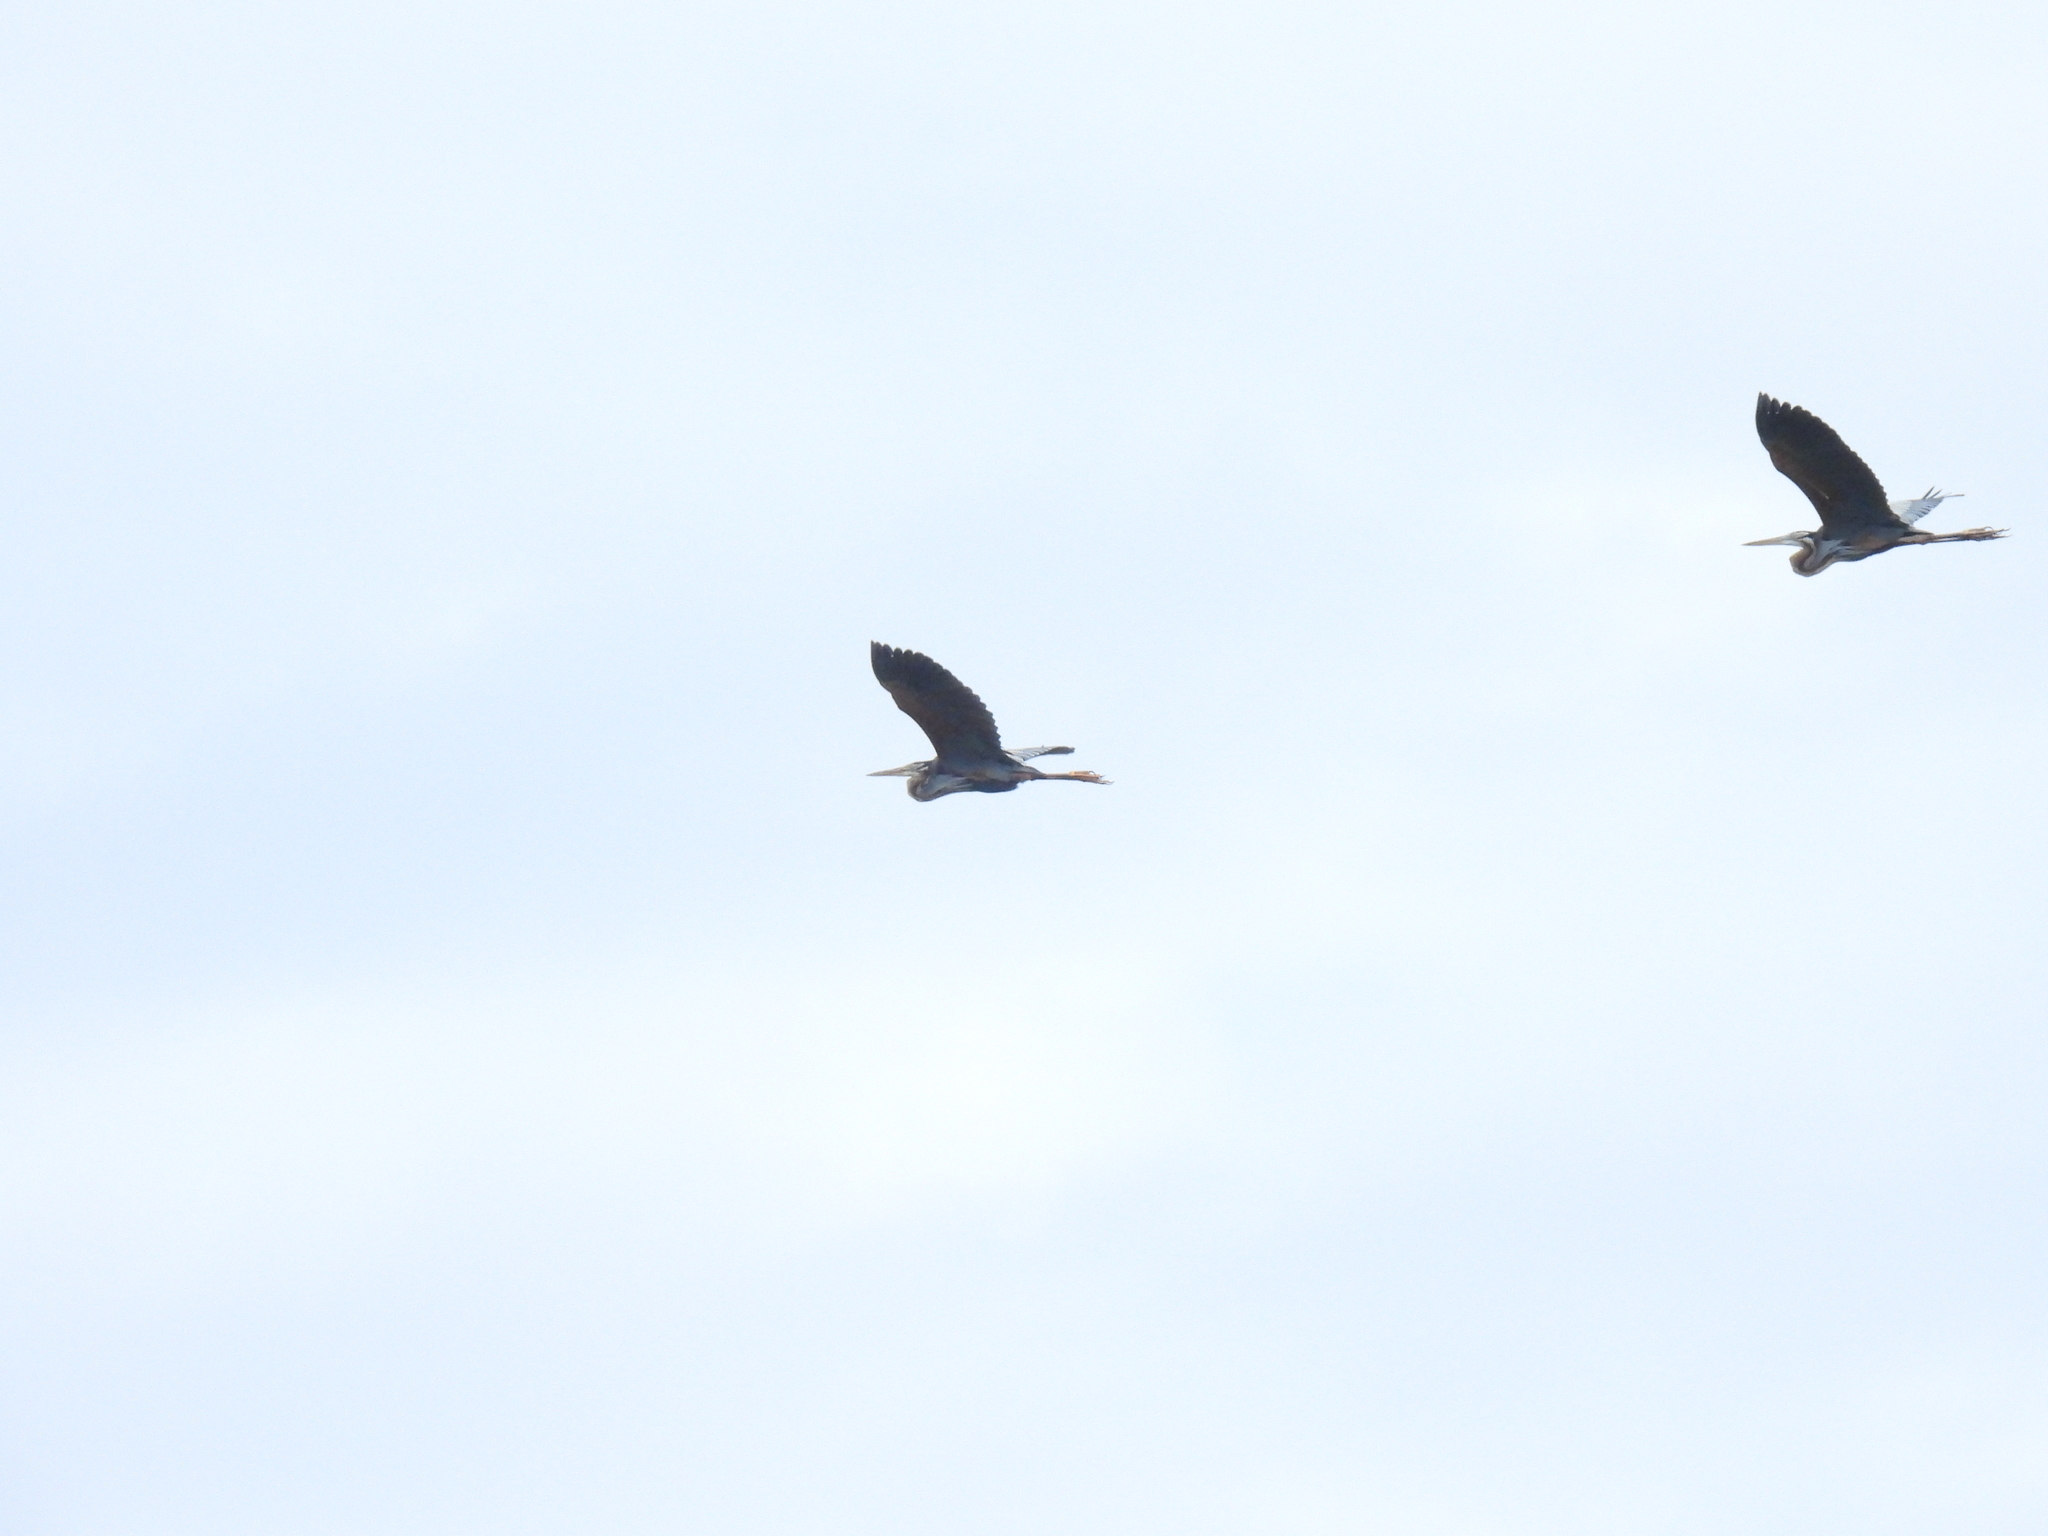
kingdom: Animalia
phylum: Chordata
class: Aves
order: Pelecaniformes
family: Ardeidae
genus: Ardea
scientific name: Ardea purpurea
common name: Purple heron
